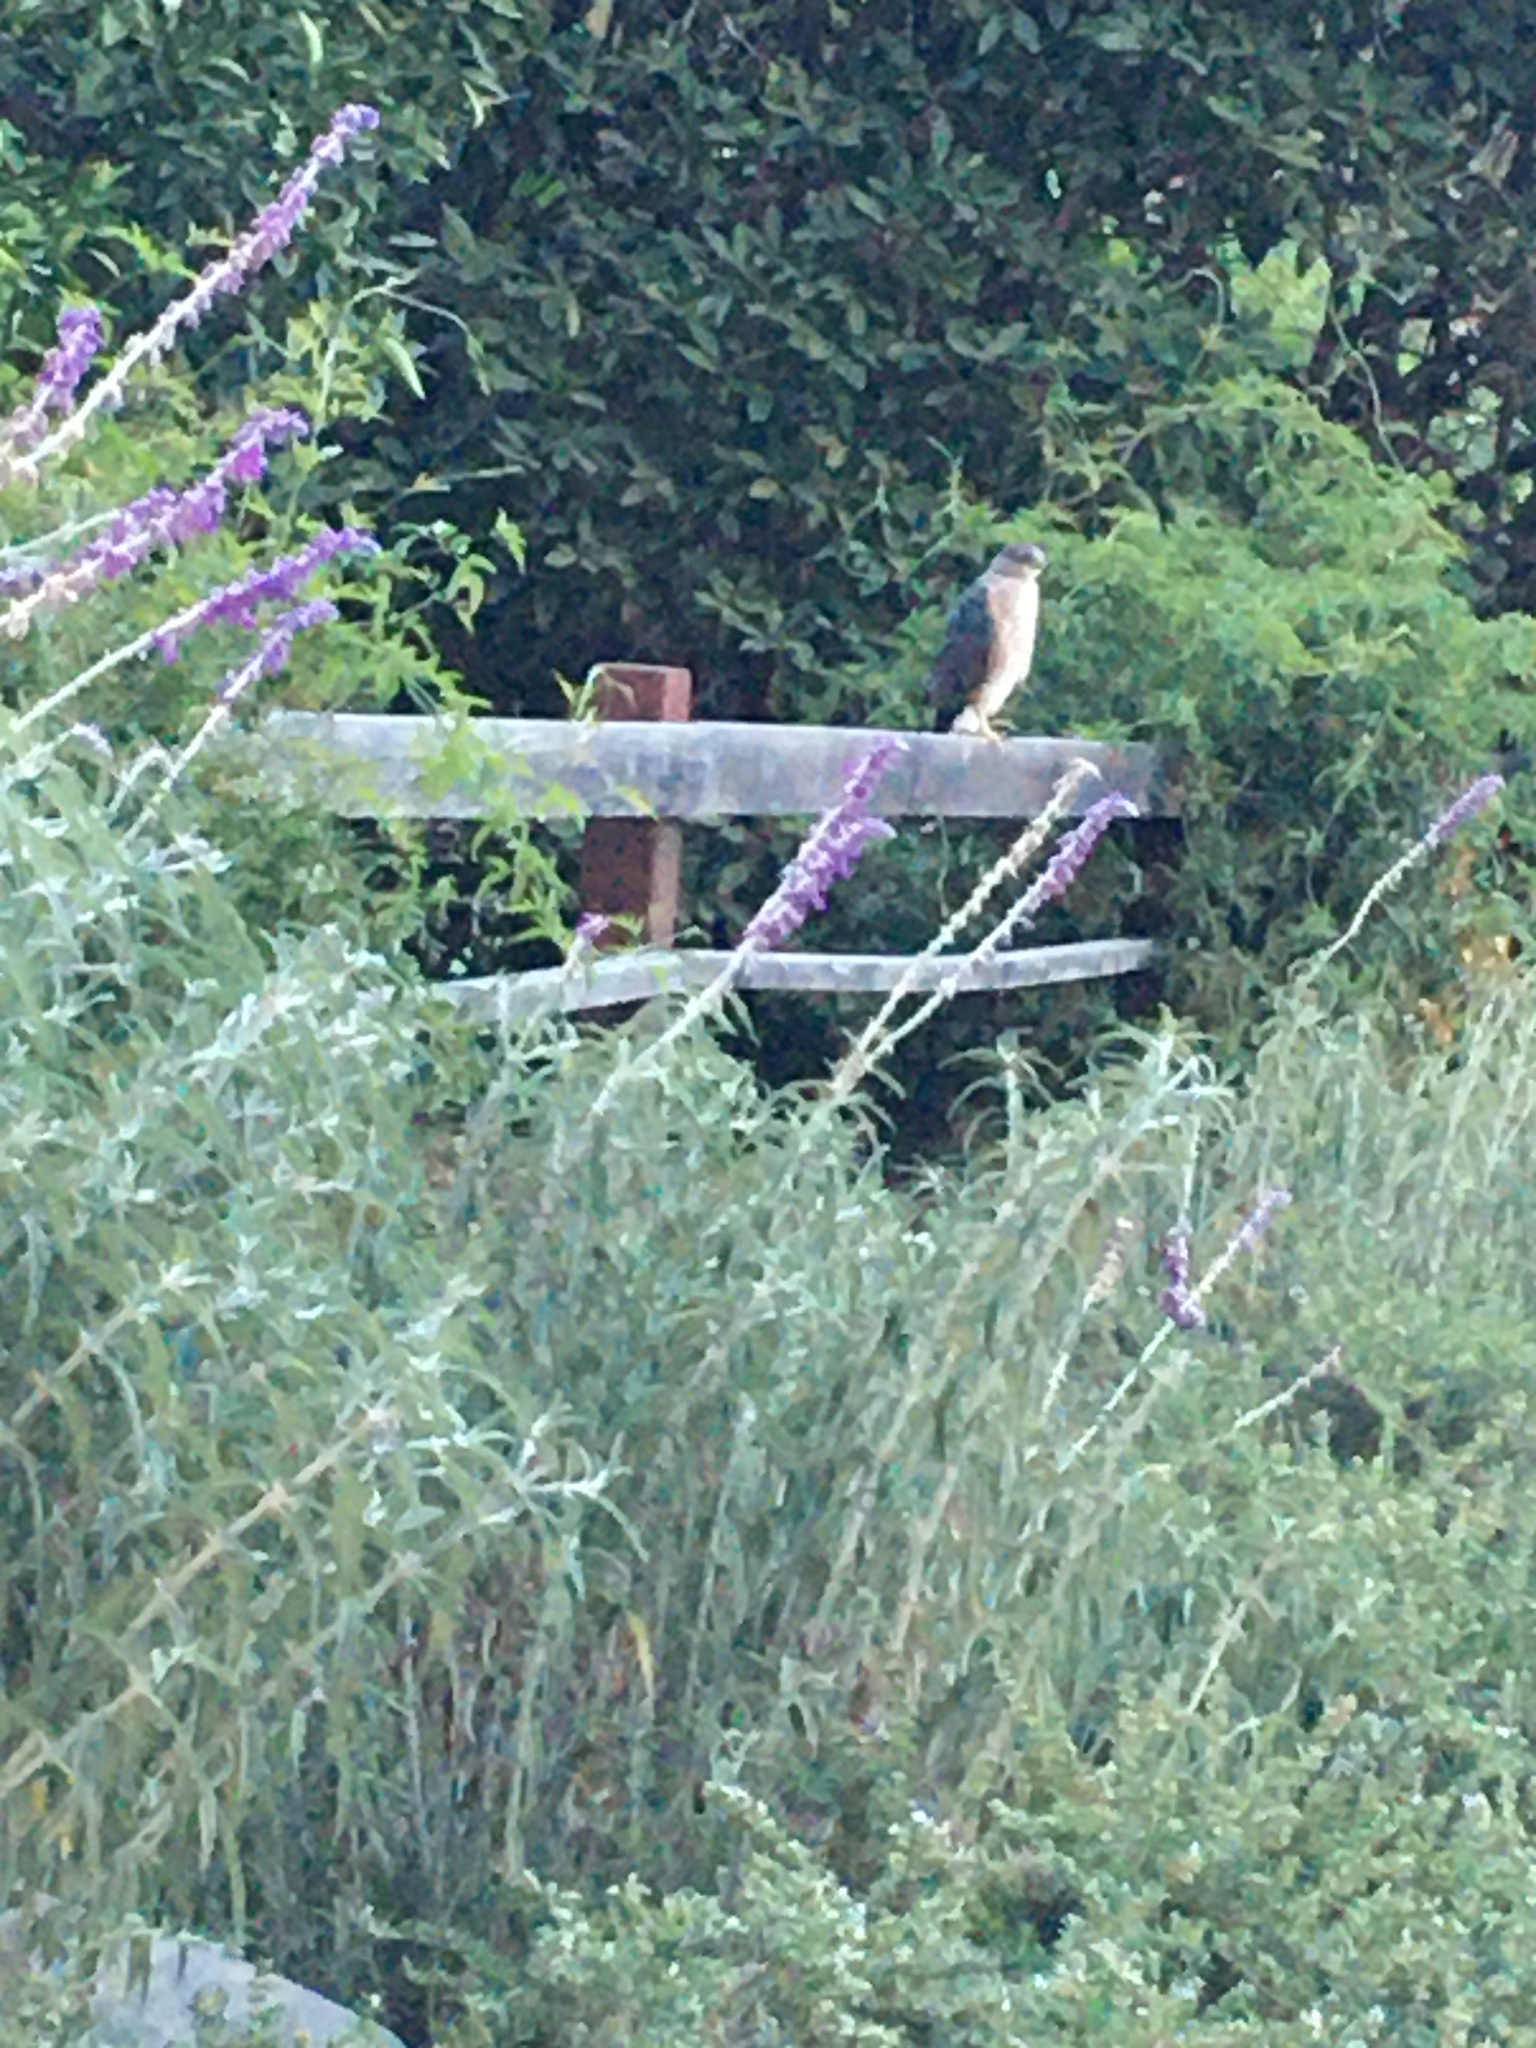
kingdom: Animalia
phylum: Chordata
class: Aves
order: Accipitriformes
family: Accipitridae
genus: Accipiter
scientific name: Accipiter cooperii
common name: Cooper's hawk
